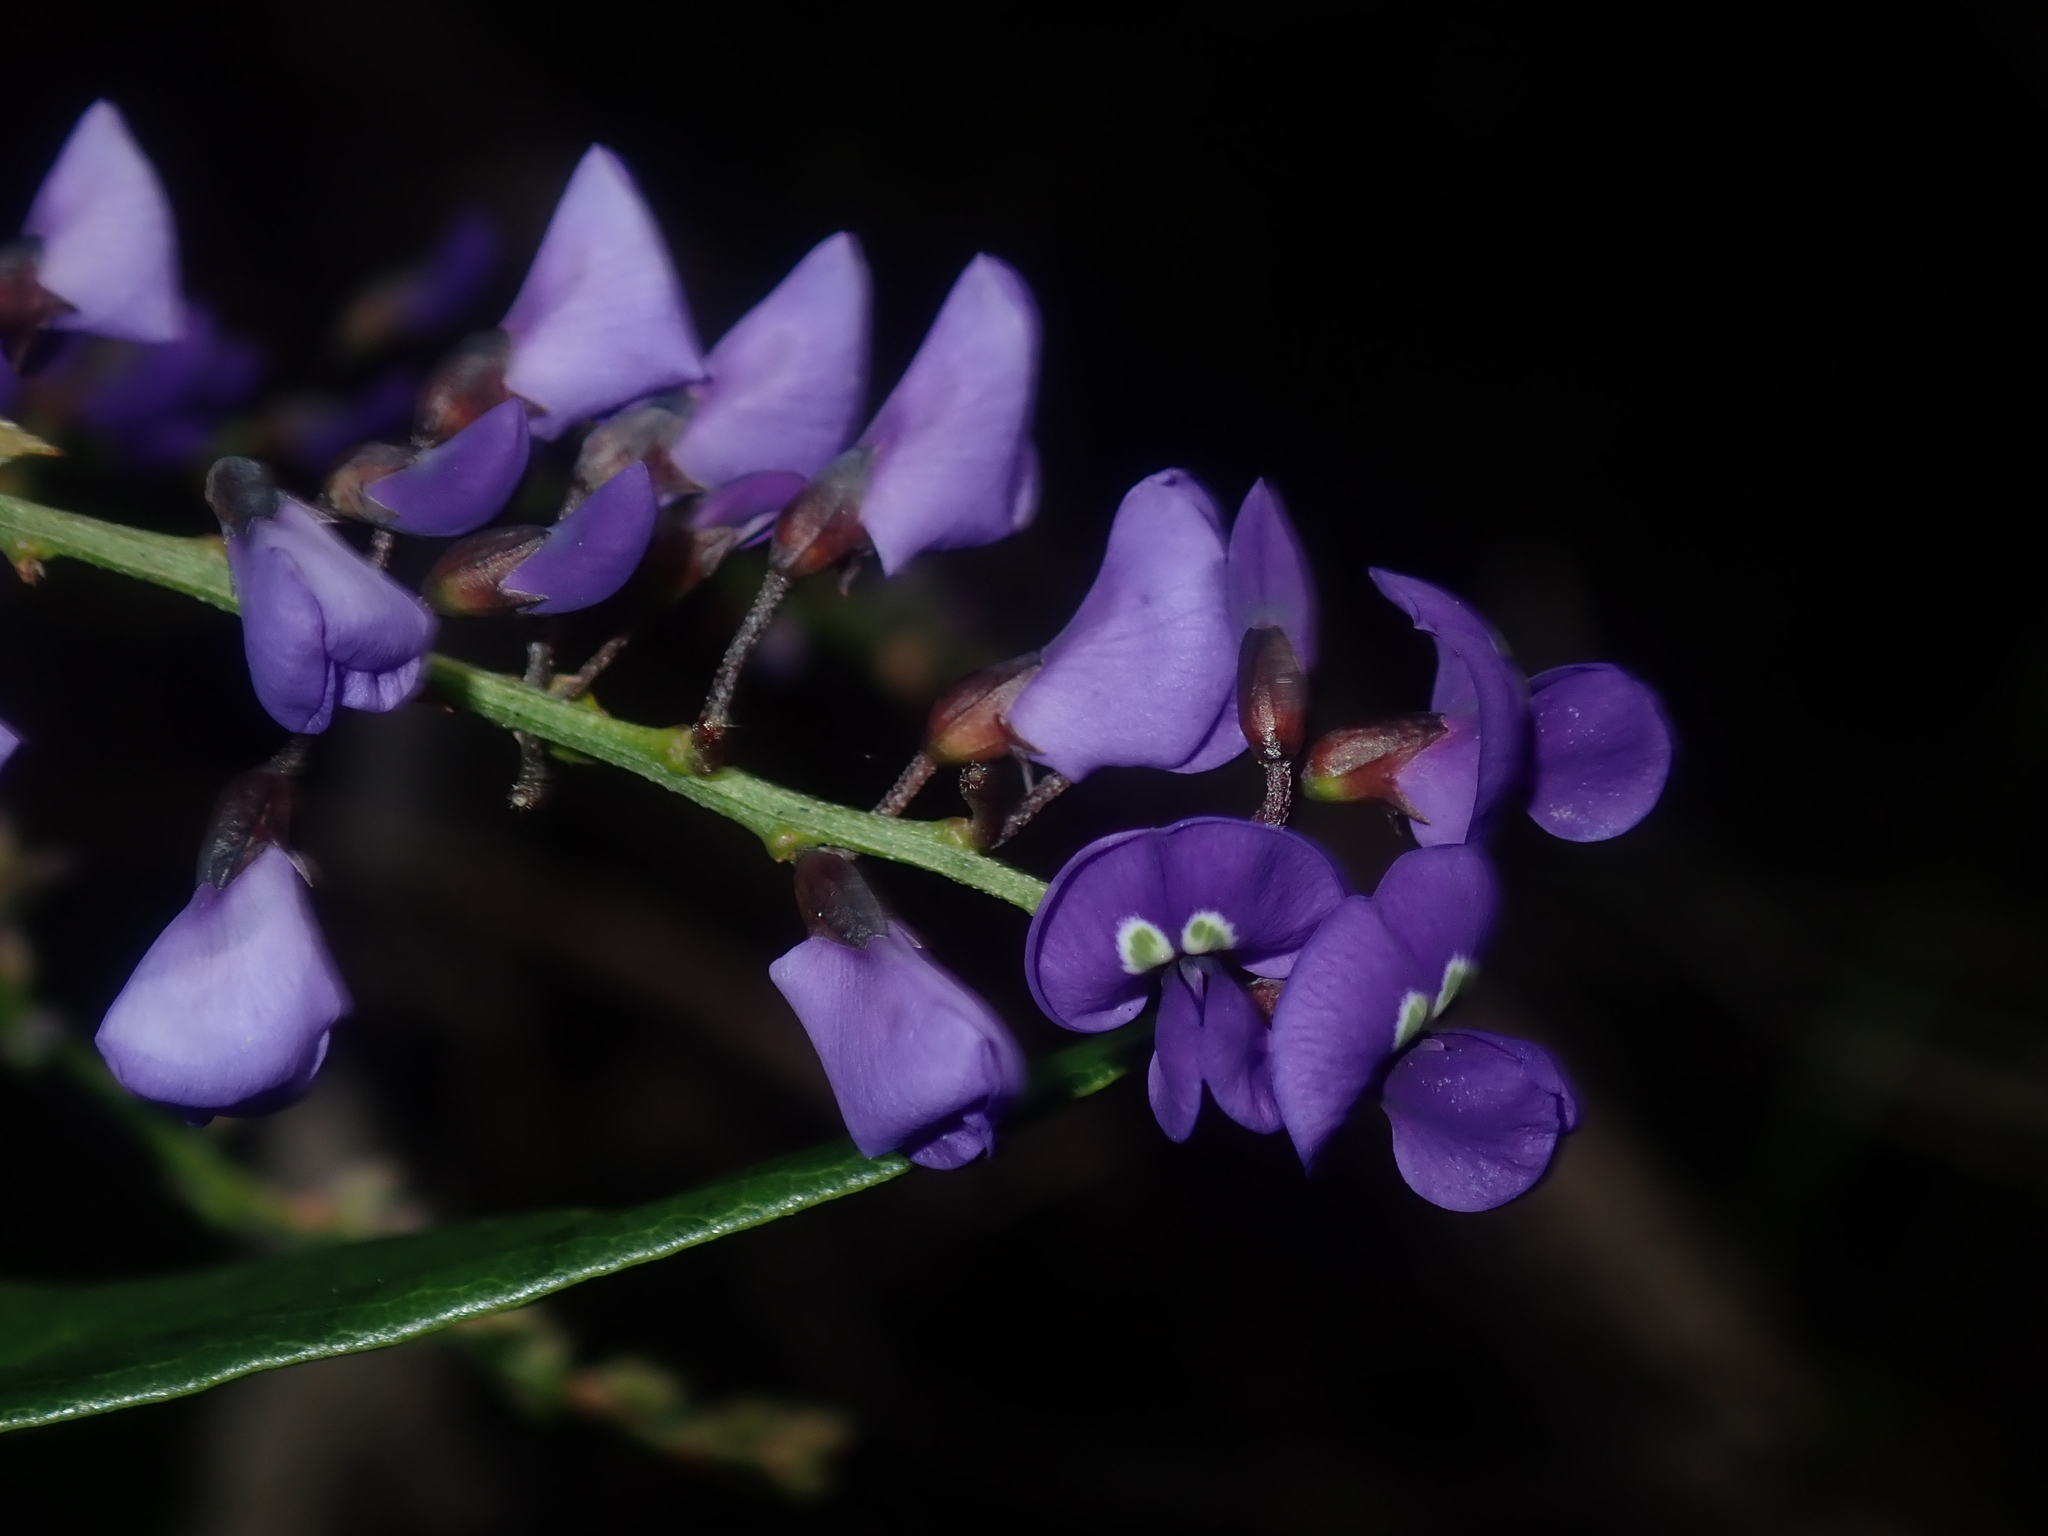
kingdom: Plantae
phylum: Tracheophyta
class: Magnoliopsida
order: Fabales
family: Fabaceae
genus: Hardenbergia
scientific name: Hardenbergia comptoniana
